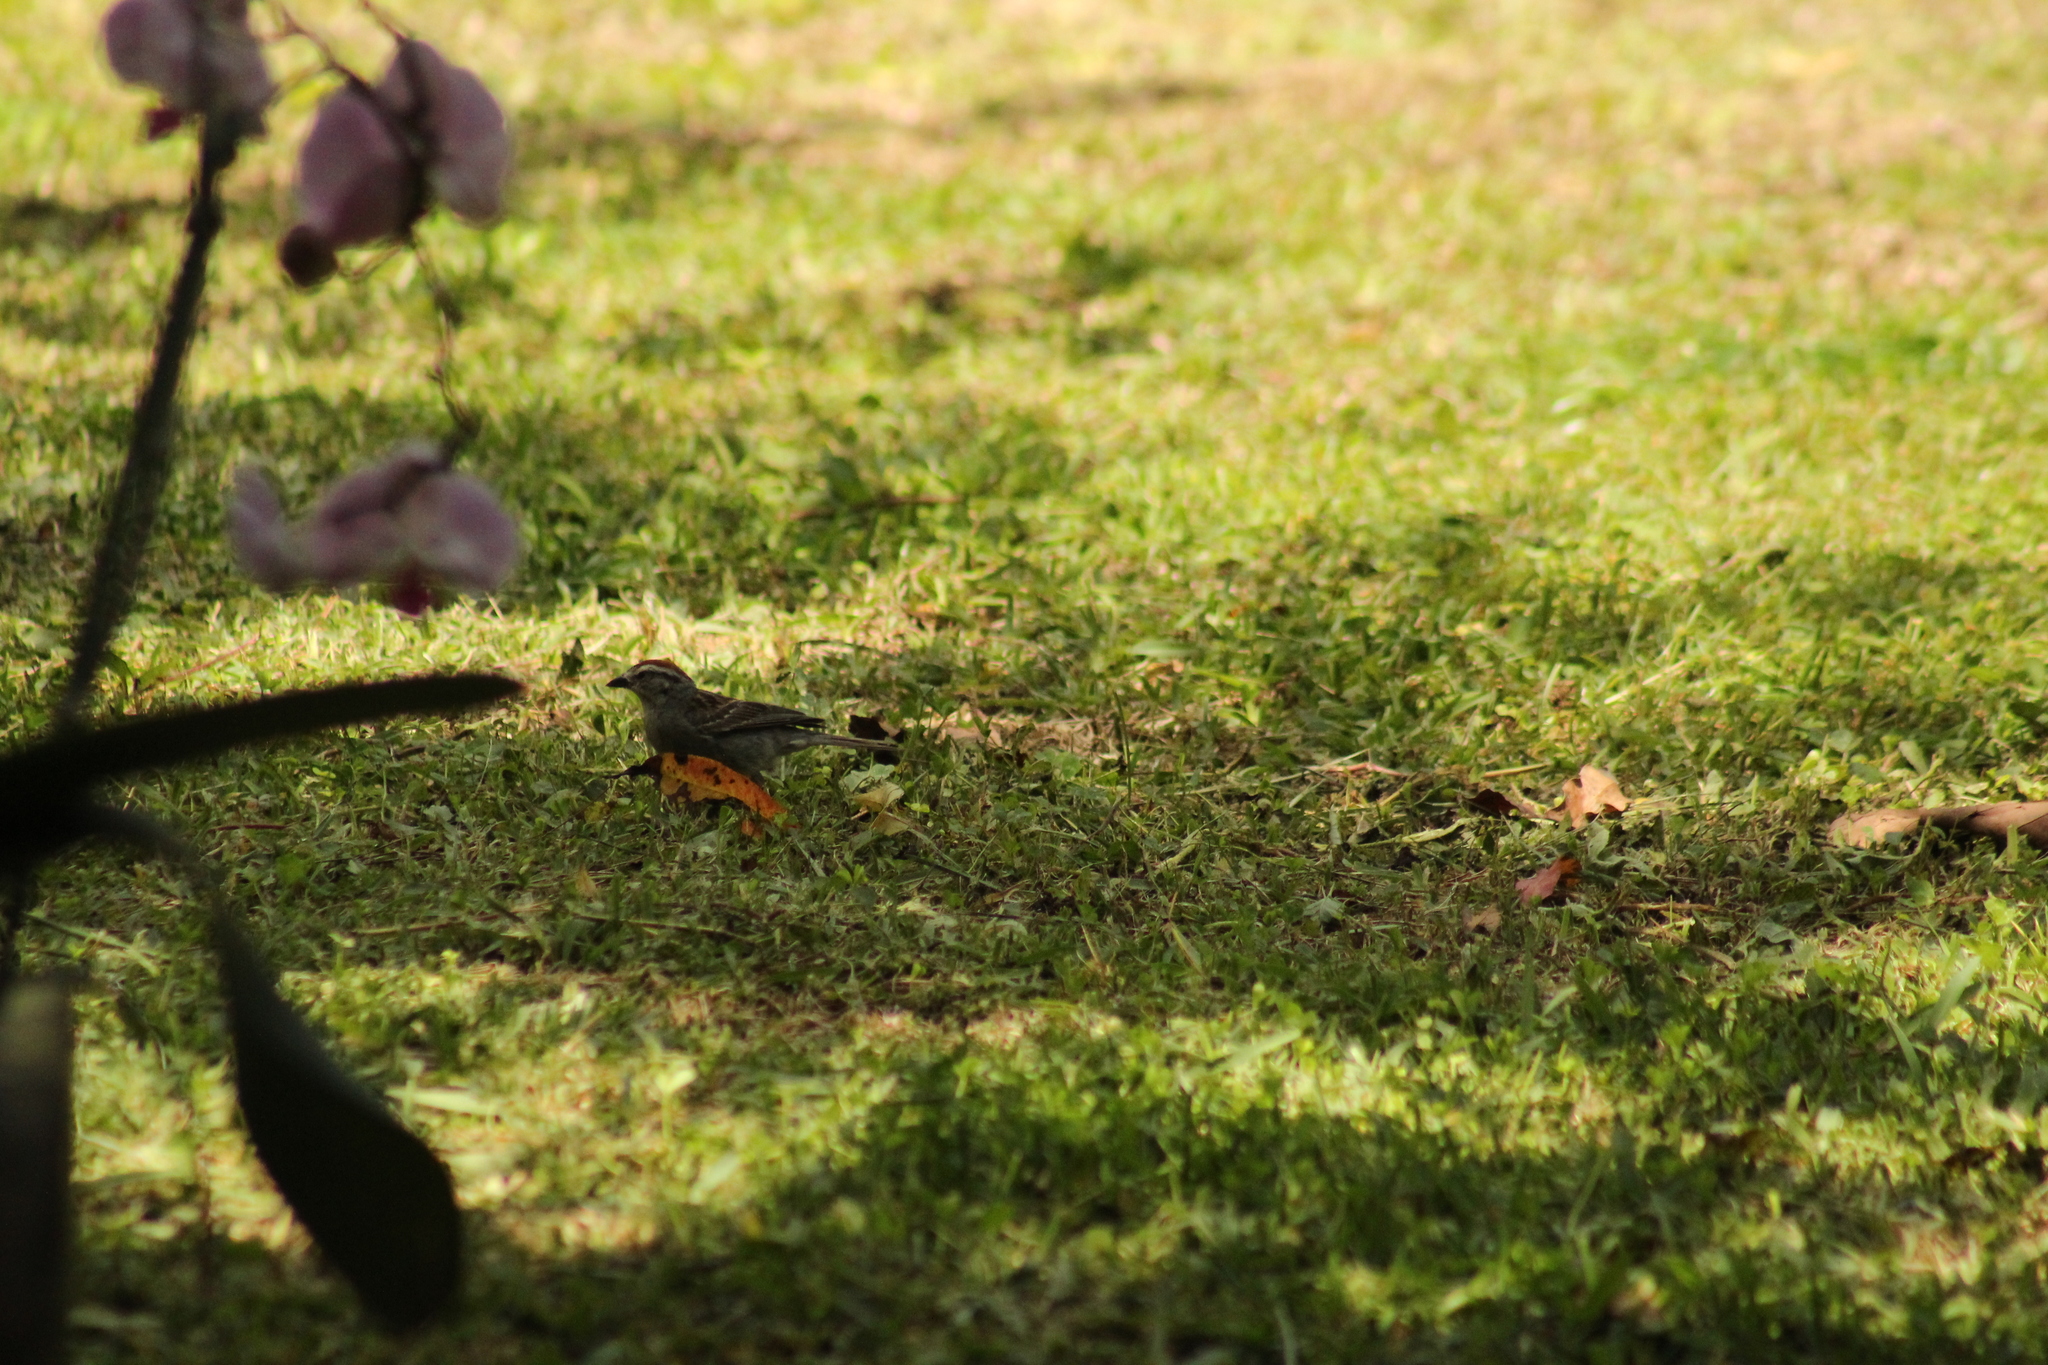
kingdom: Animalia
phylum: Chordata
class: Aves
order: Passeriformes
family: Passerellidae
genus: Spizella
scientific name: Spizella passerina
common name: Chipping sparrow
